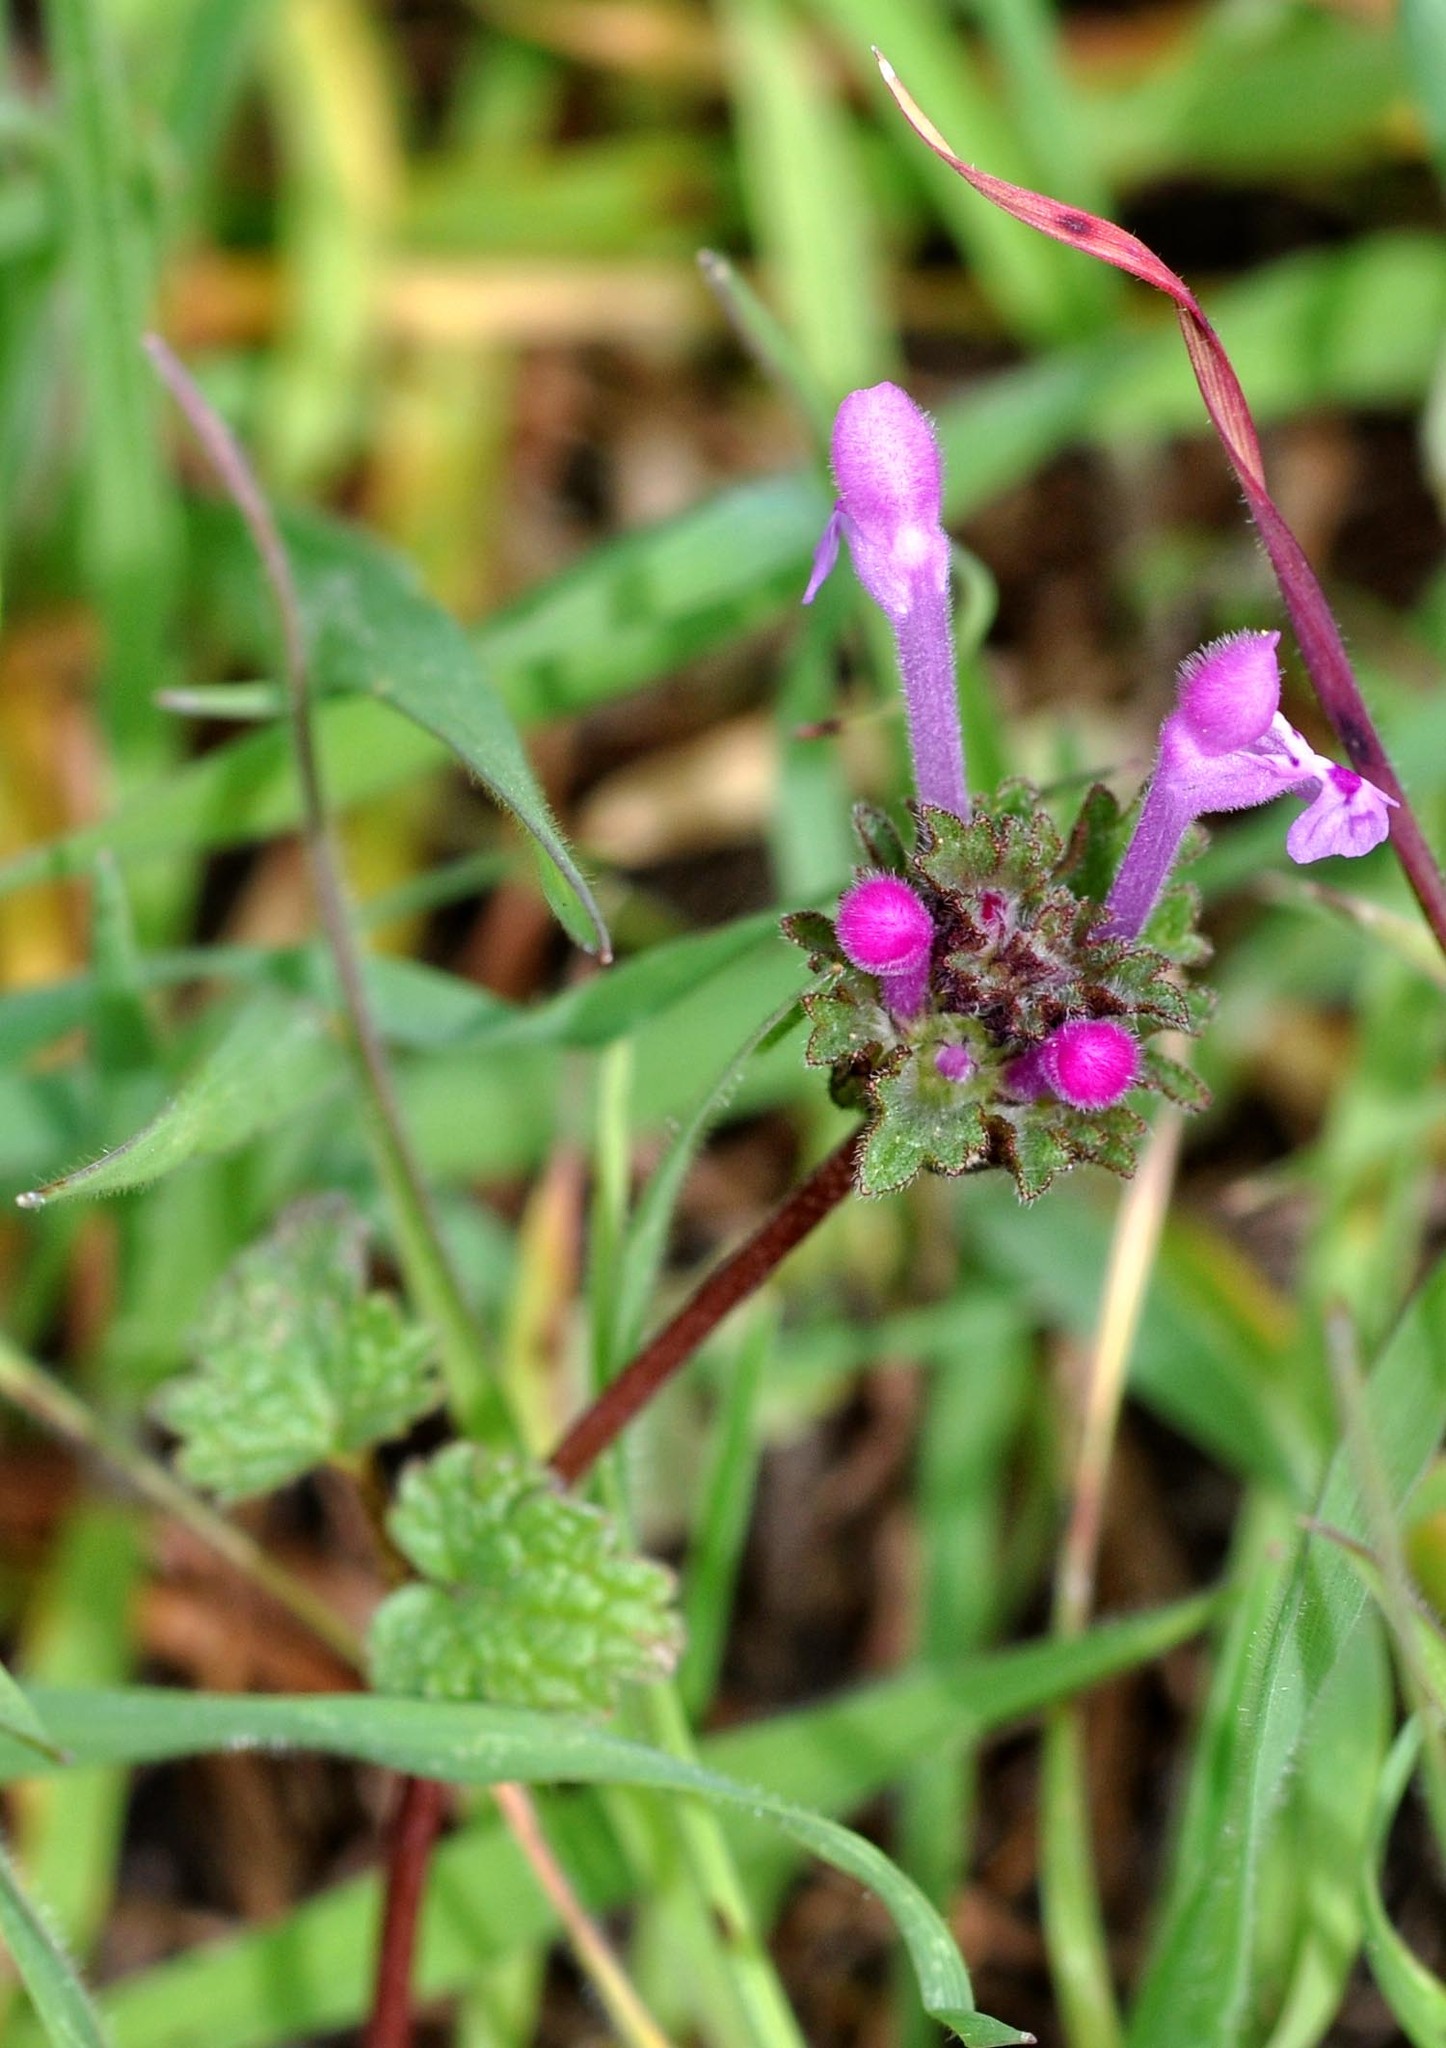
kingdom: Plantae
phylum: Tracheophyta
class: Magnoliopsida
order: Lamiales
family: Lamiaceae
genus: Lamium
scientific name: Lamium amplexicaule
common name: Henbit dead-nettle
